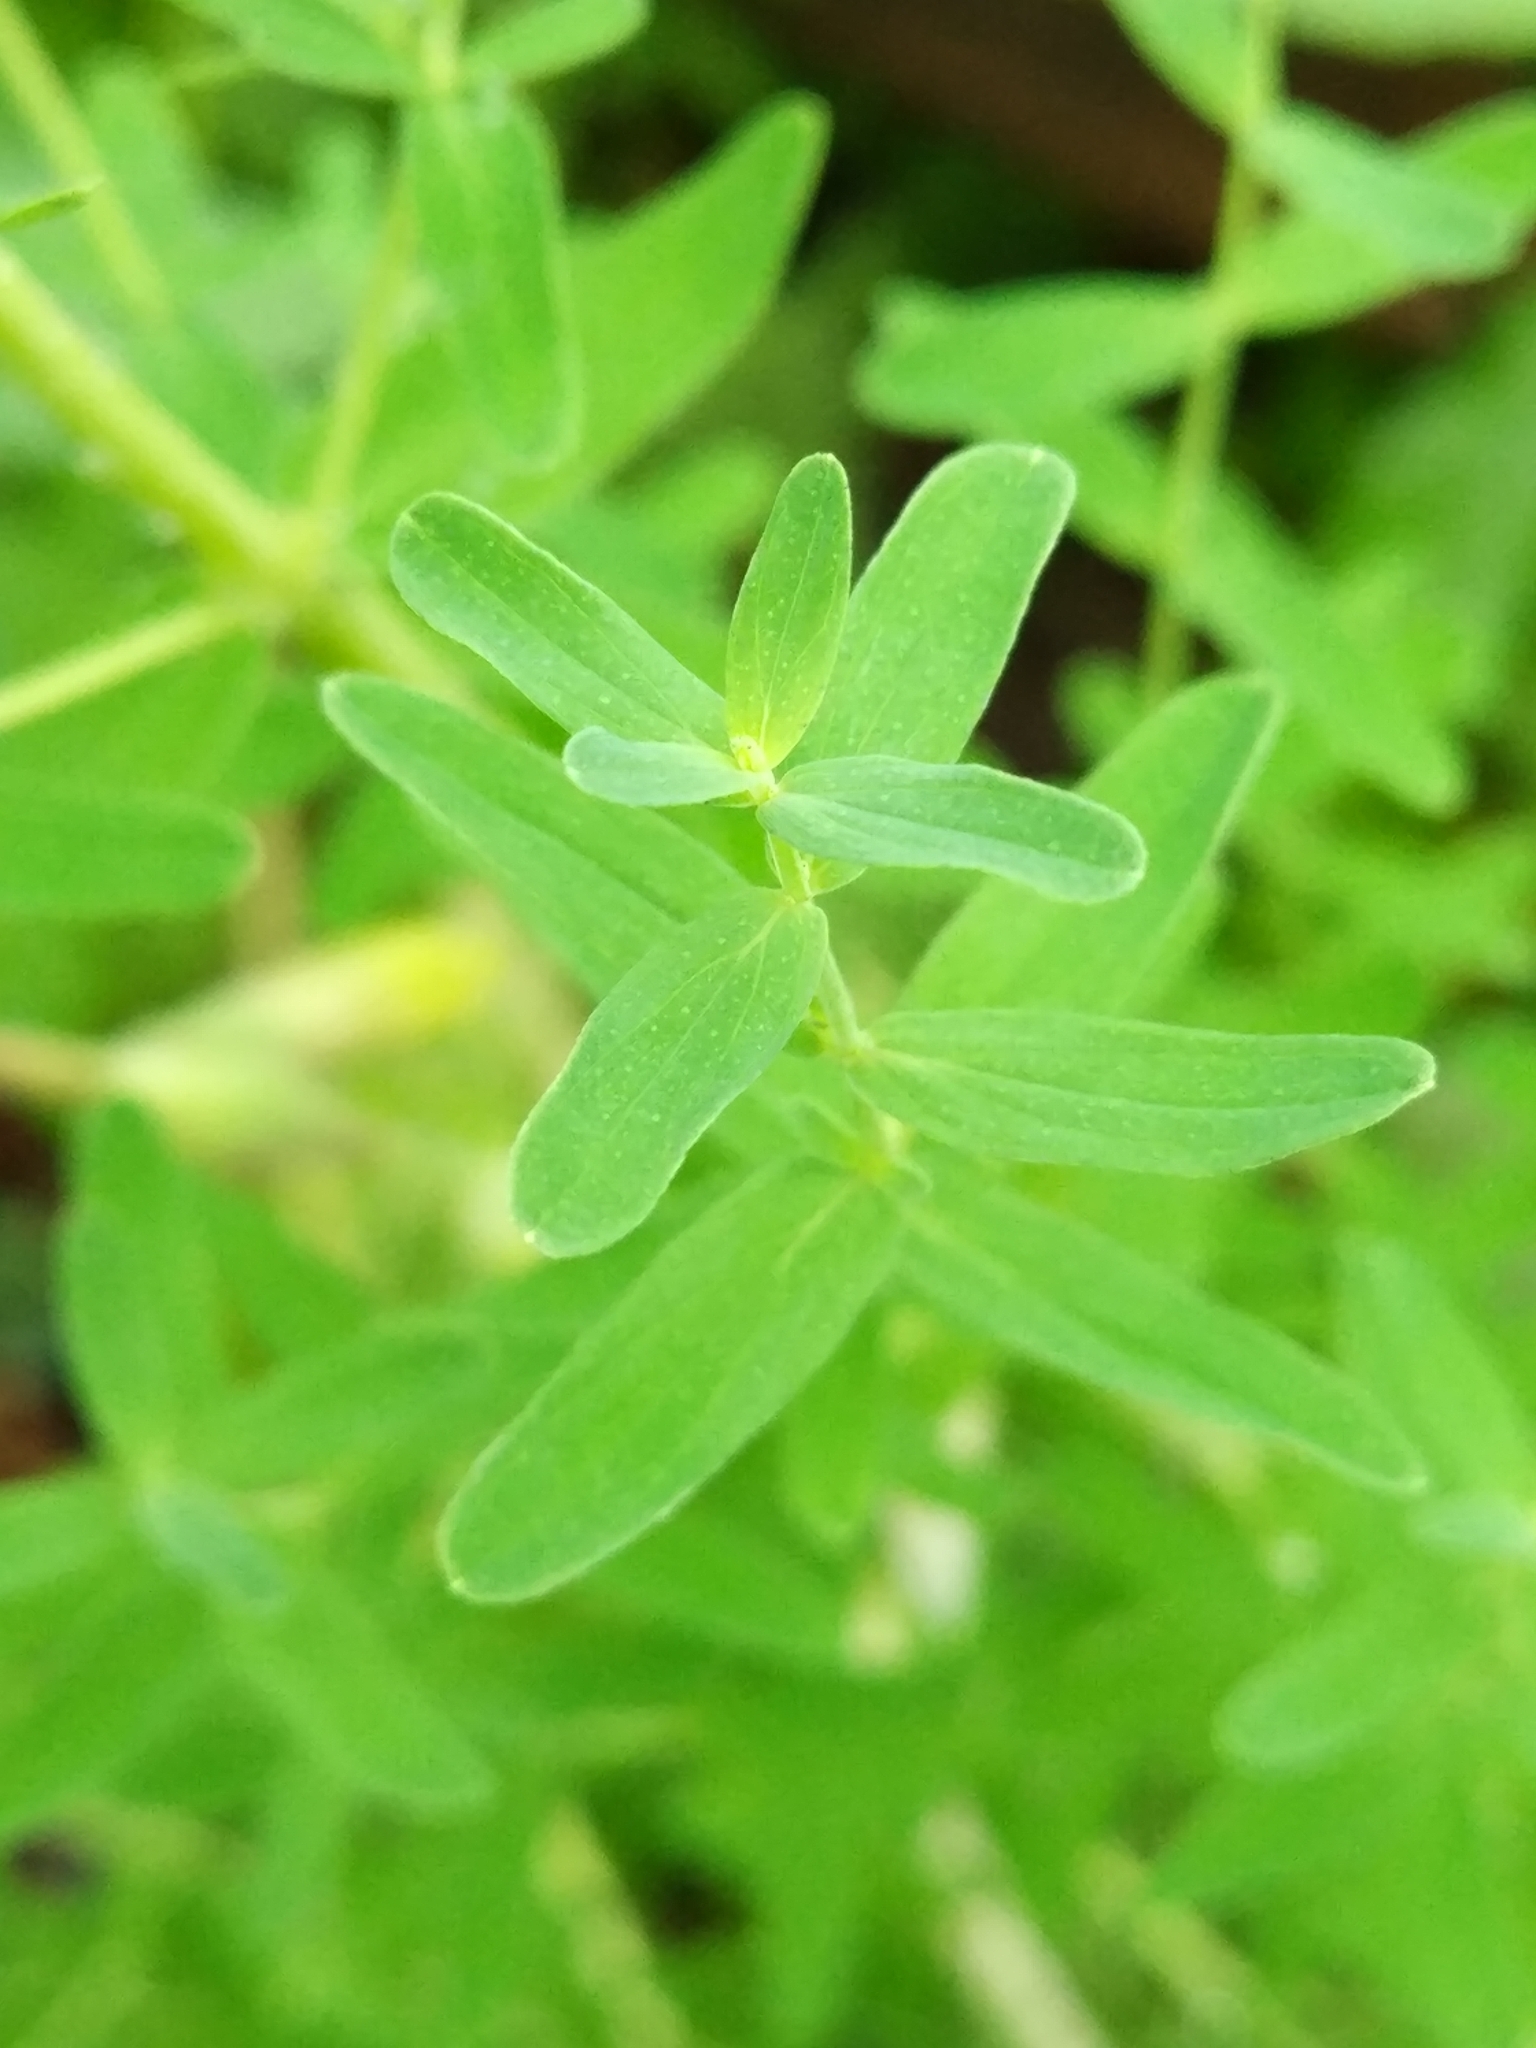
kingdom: Plantae
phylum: Tracheophyta
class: Magnoliopsida
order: Malpighiales
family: Hypericaceae
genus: Hypericum
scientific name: Hypericum perforatum
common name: Common st. johnswort
